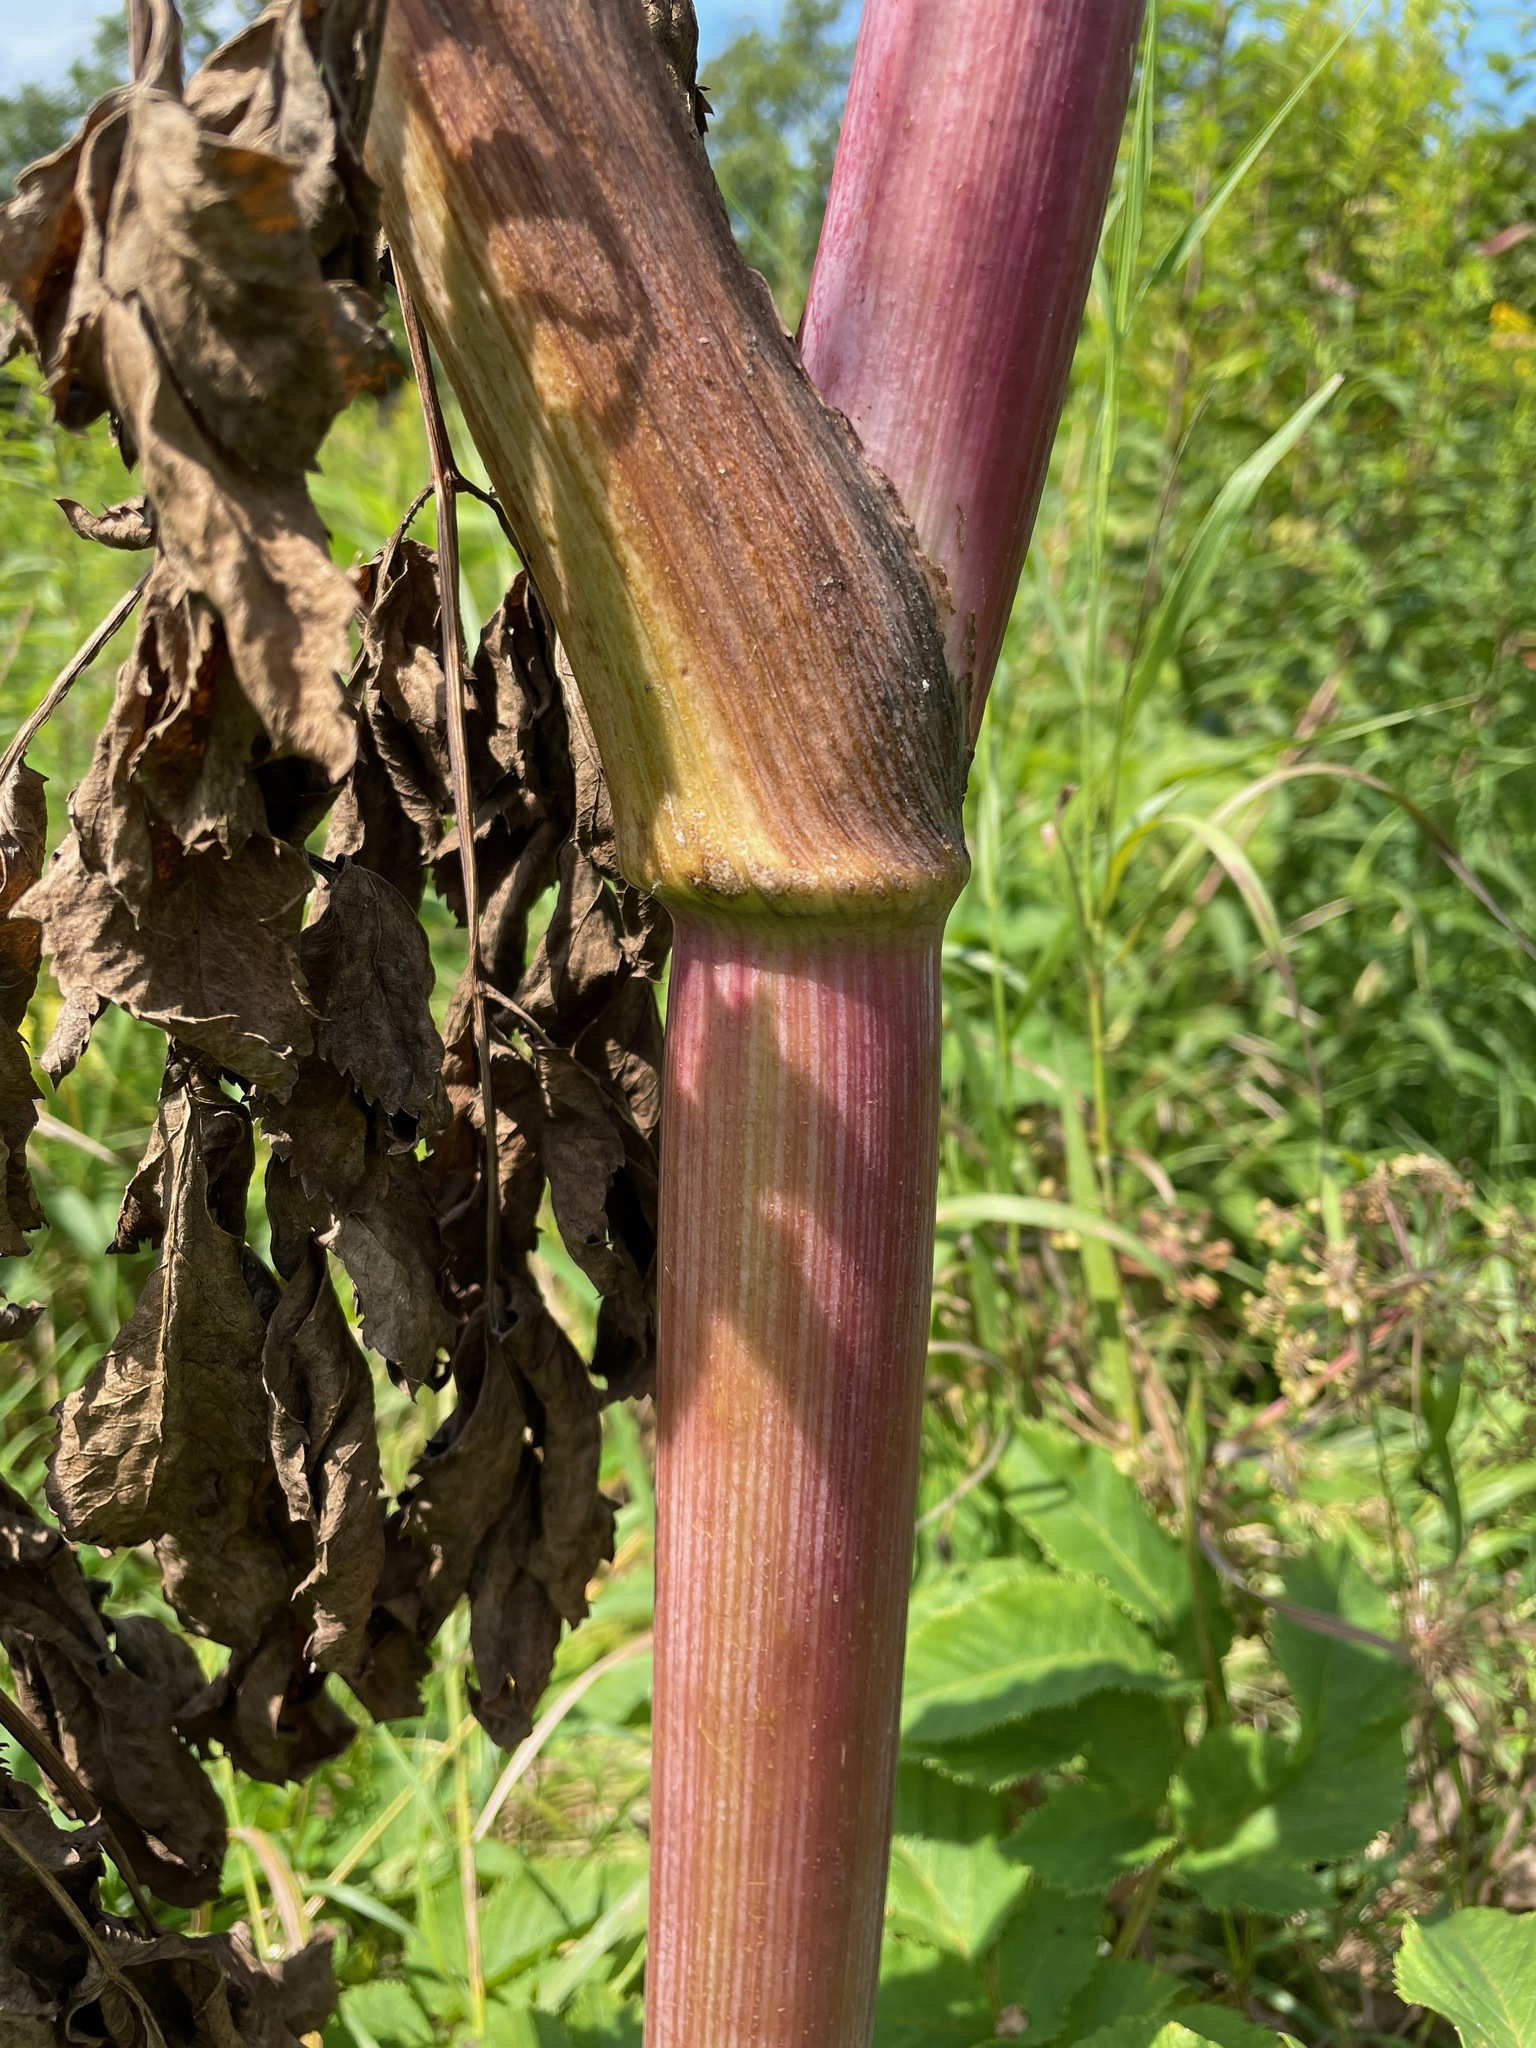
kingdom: Plantae
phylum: Tracheophyta
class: Magnoliopsida
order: Apiales
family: Apiaceae
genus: Angelica
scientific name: Angelica atropurpurea
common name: Great angelica
